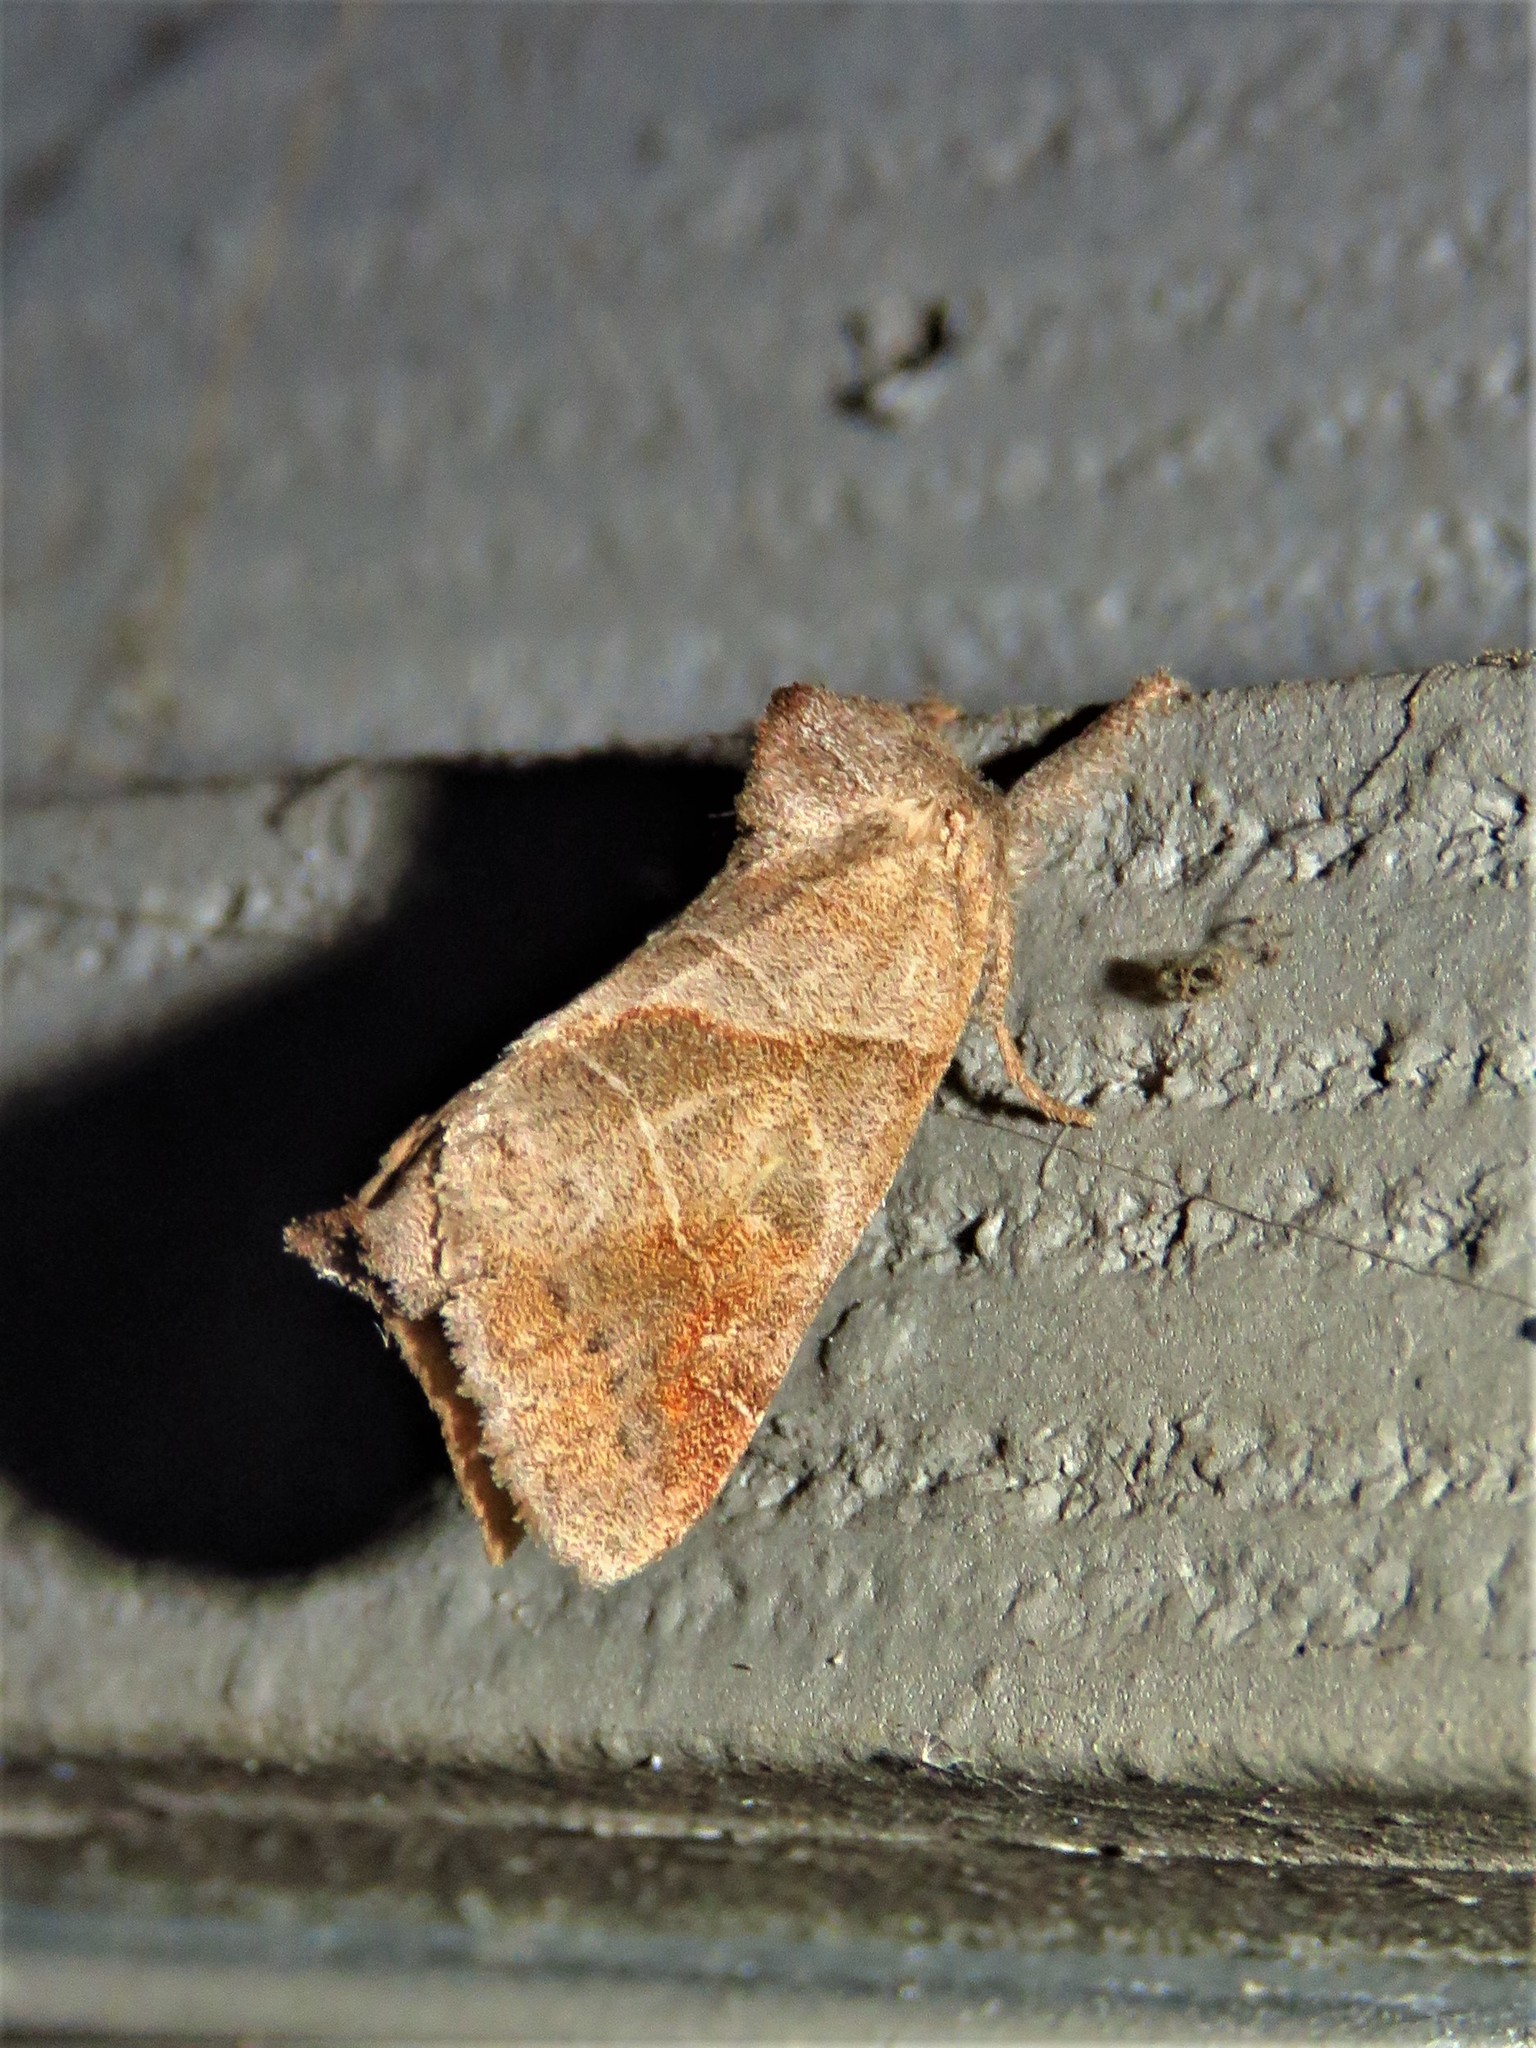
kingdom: Animalia
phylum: Arthropoda
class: Insecta
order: Lepidoptera
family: Notodontidae
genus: Clostera
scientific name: Clostera inclusa
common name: Angle-lined prominent
